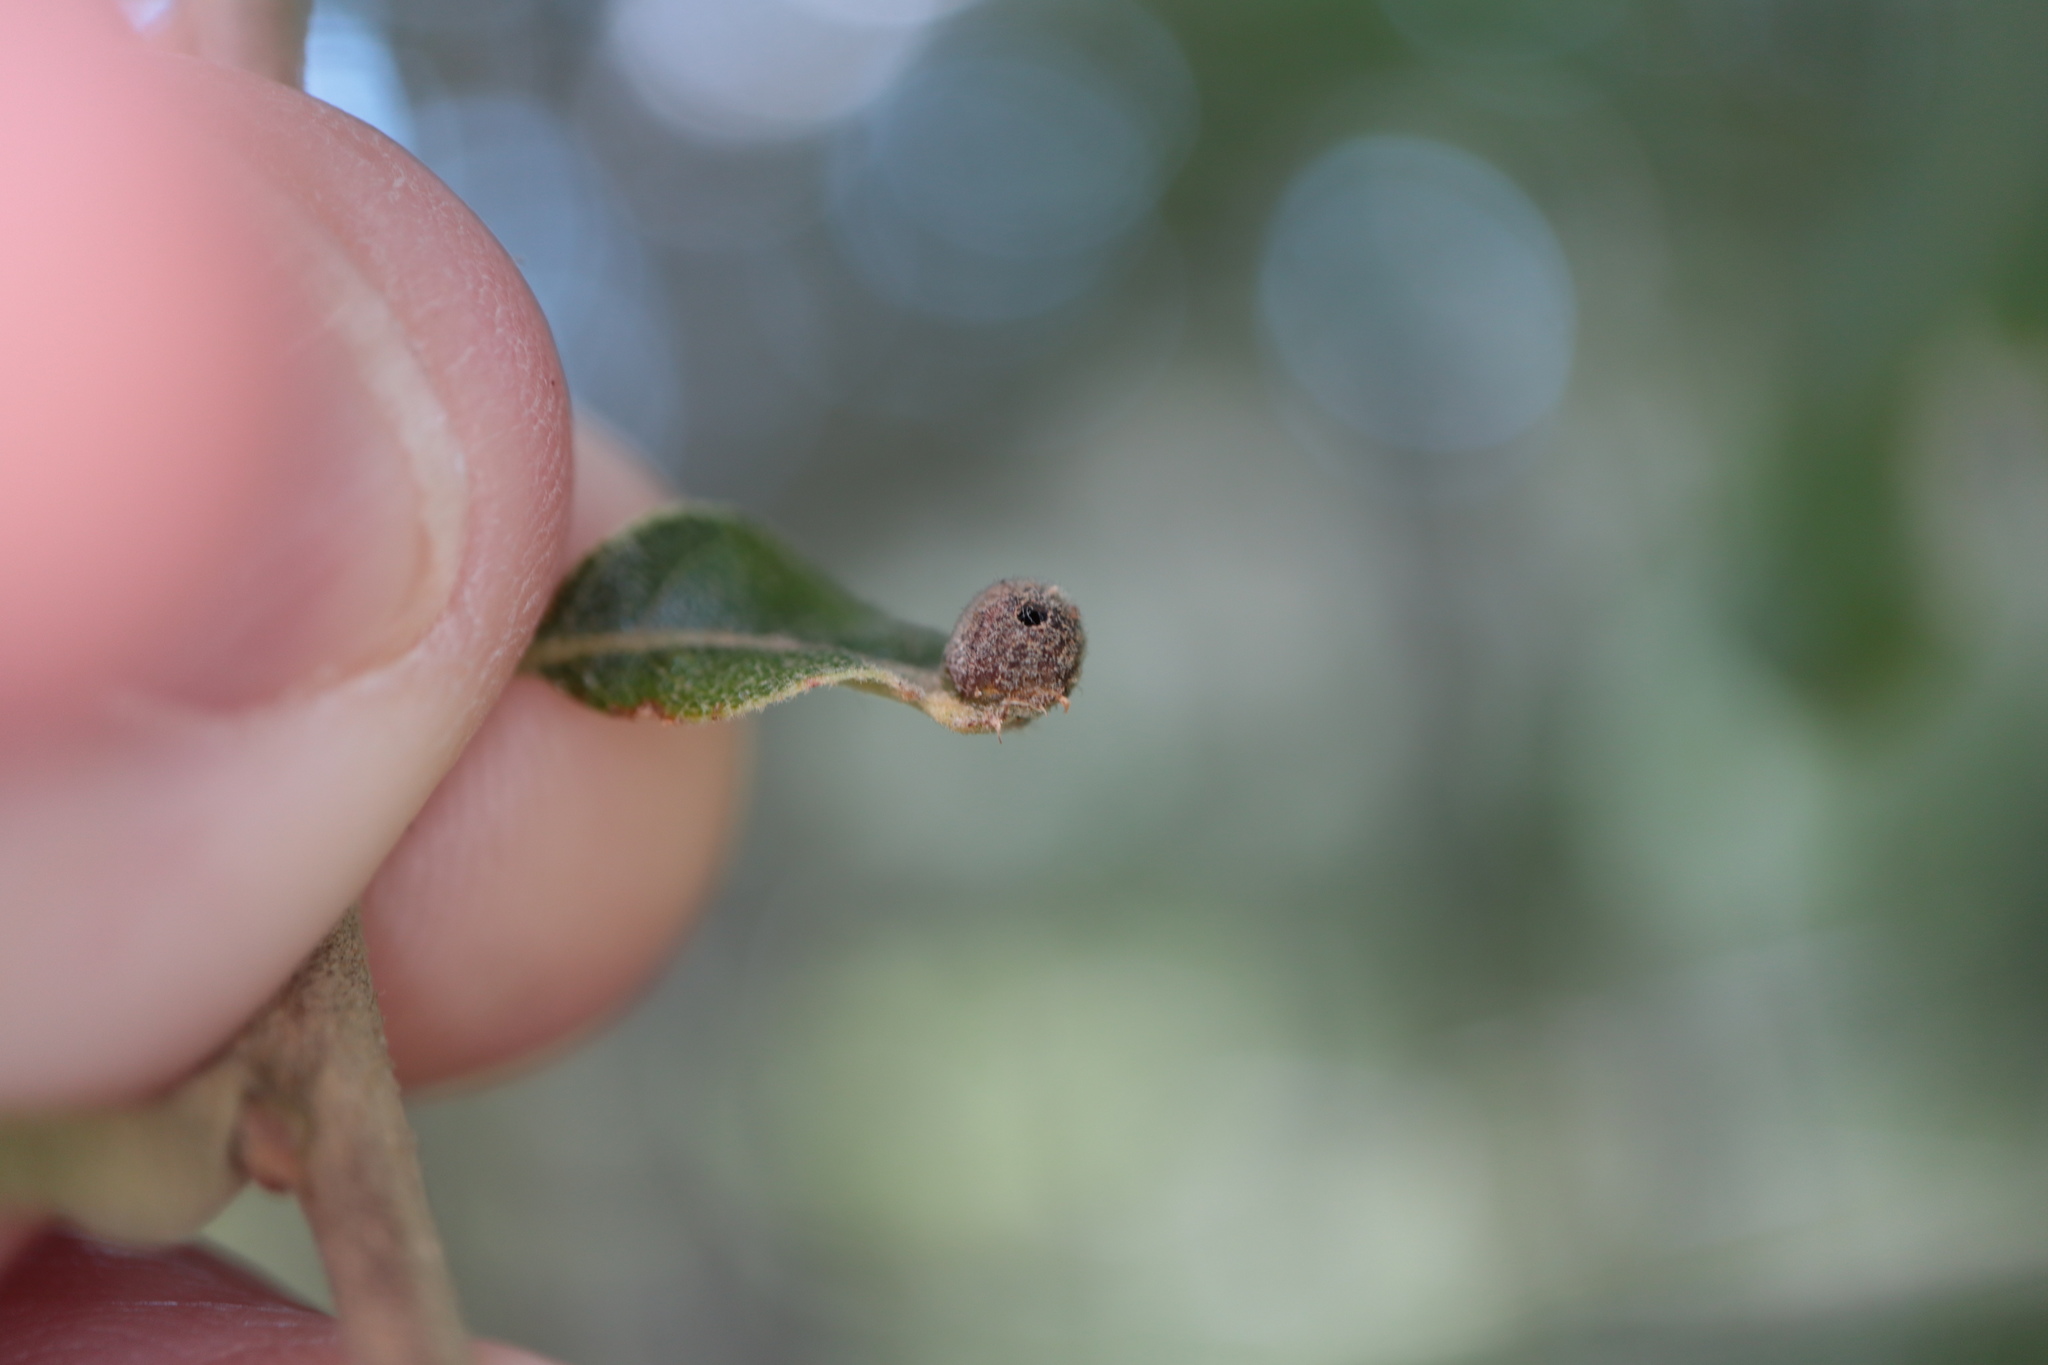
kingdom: Animalia
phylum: Arthropoda
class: Insecta
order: Hymenoptera
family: Cynipidae
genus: Andricus
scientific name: Andricus
